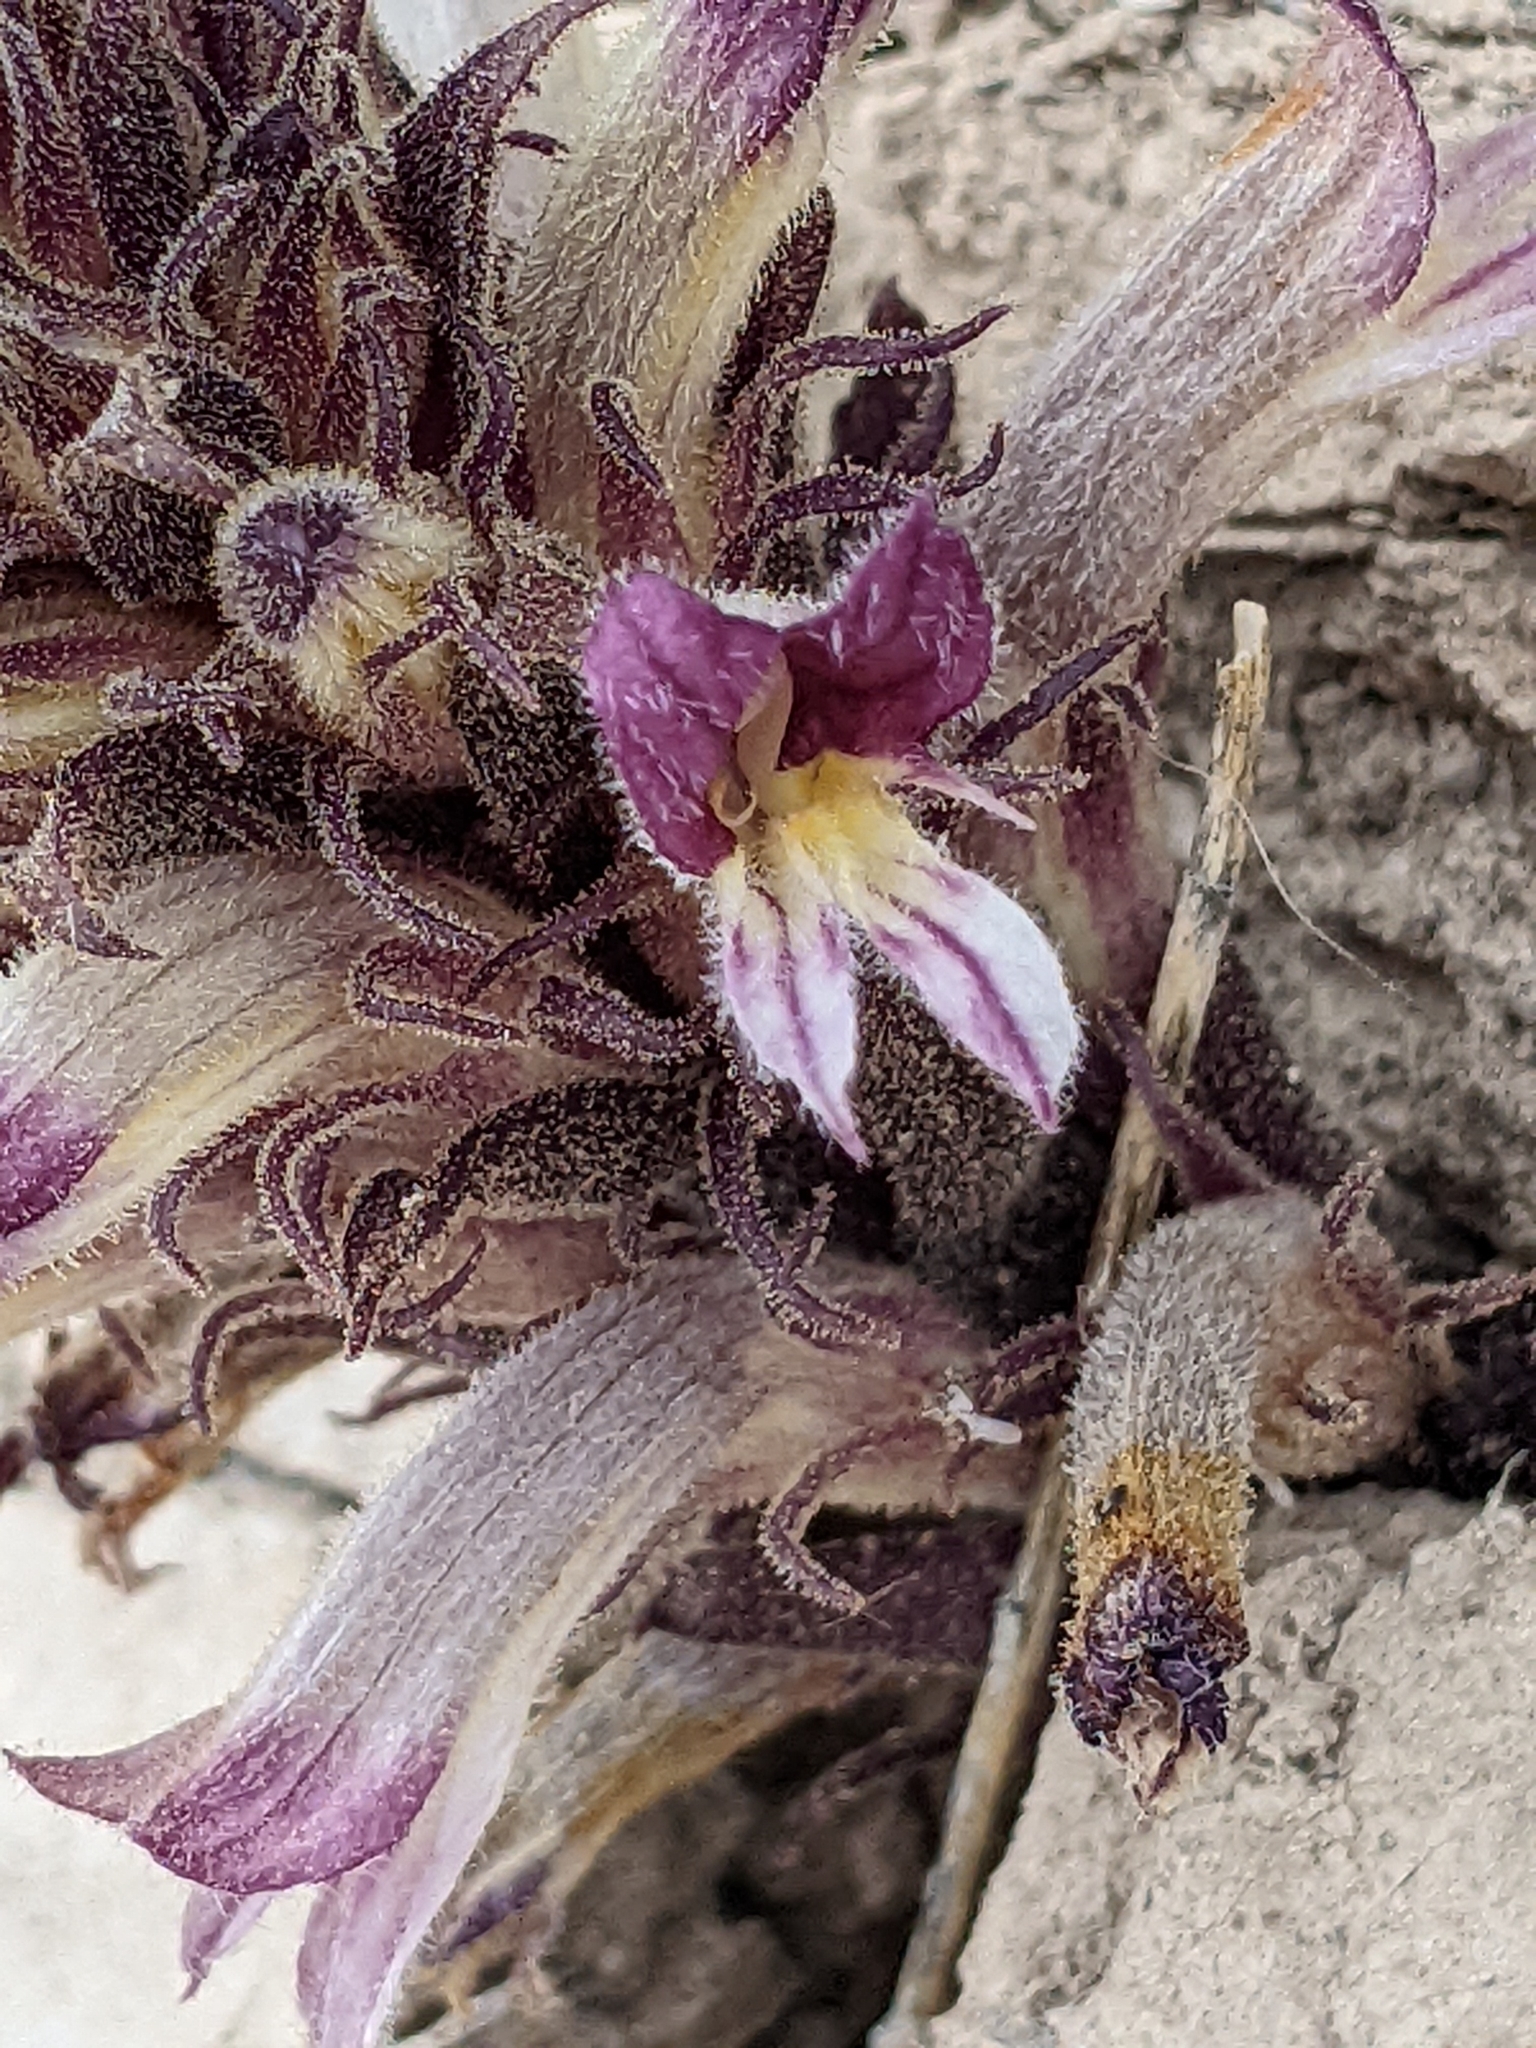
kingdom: Plantae
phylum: Tracheophyta
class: Magnoliopsida
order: Lamiales
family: Orobanchaceae
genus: Aphyllon
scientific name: Aphyllon cooperi
